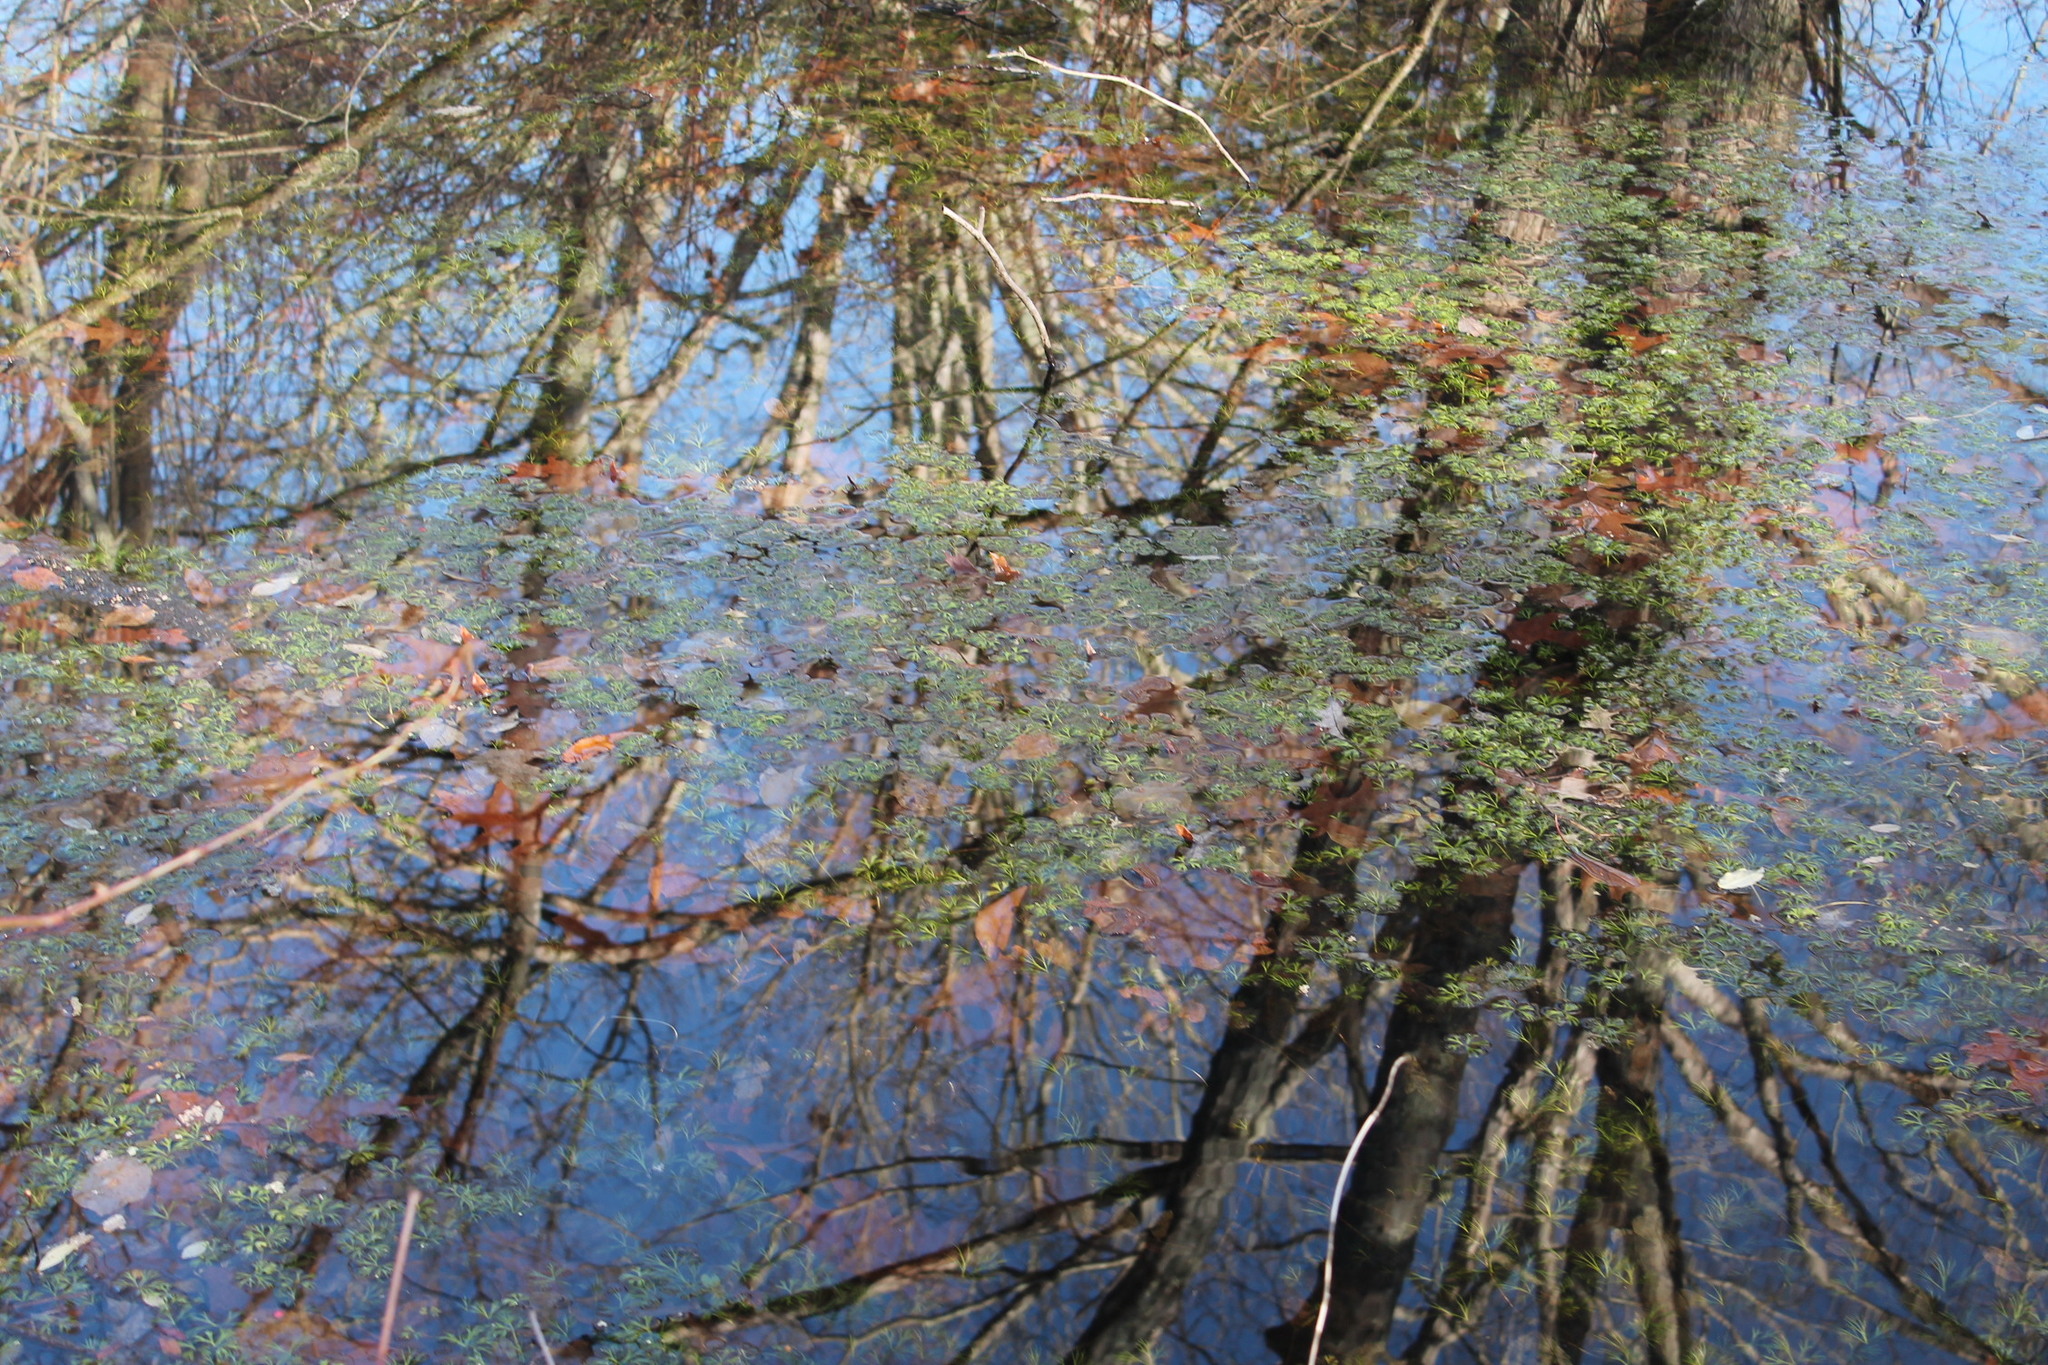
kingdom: Plantae
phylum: Tracheophyta
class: Magnoliopsida
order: Ranunculales
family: Ranunculaceae
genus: Ranunculus
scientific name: Ranunculus flabellaris
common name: Yellow water-crowfoot
